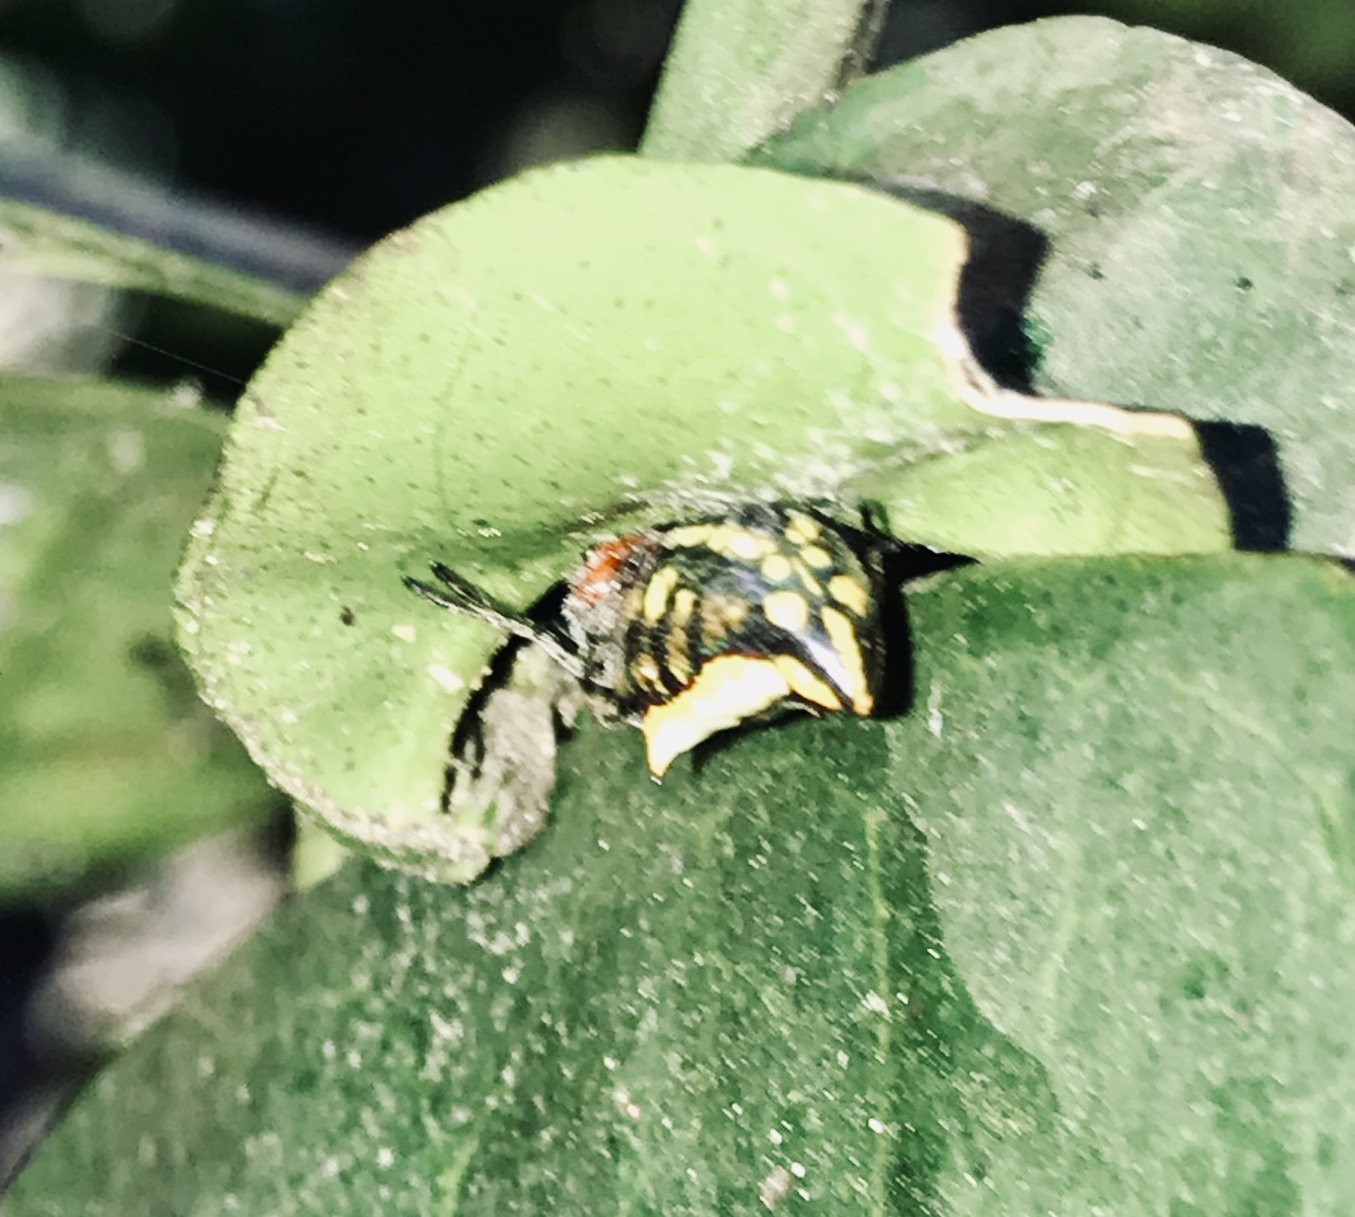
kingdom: Animalia
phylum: Arthropoda
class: Arachnida
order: Araneae
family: Araneidae
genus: Alpaida
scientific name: Alpaida bicornuta
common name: Orb weavers
